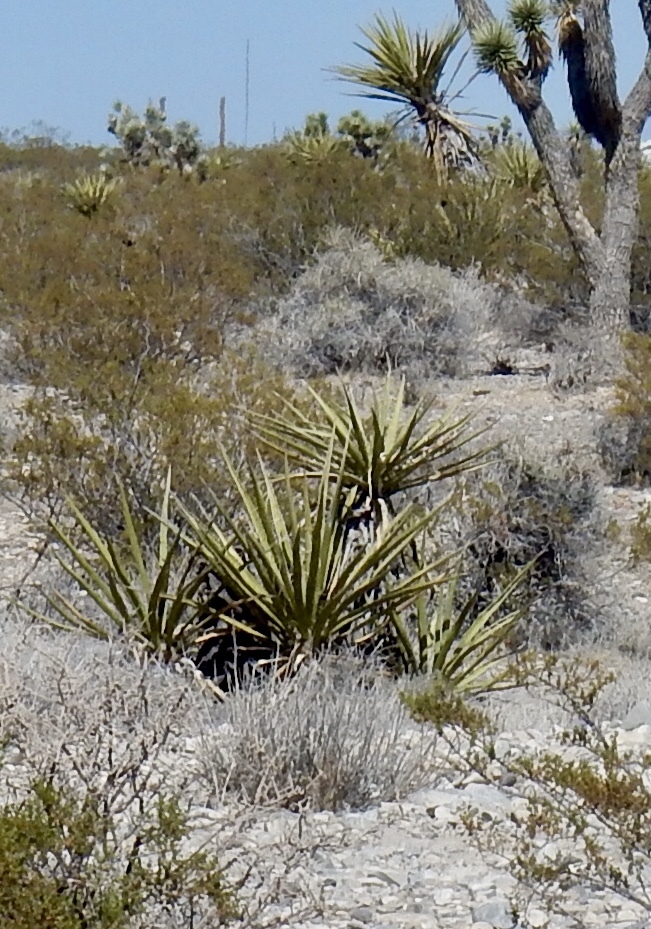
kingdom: Plantae
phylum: Tracheophyta
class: Liliopsida
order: Asparagales
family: Asparagaceae
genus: Yucca
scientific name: Yucca schidigera
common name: Mojave yucca
